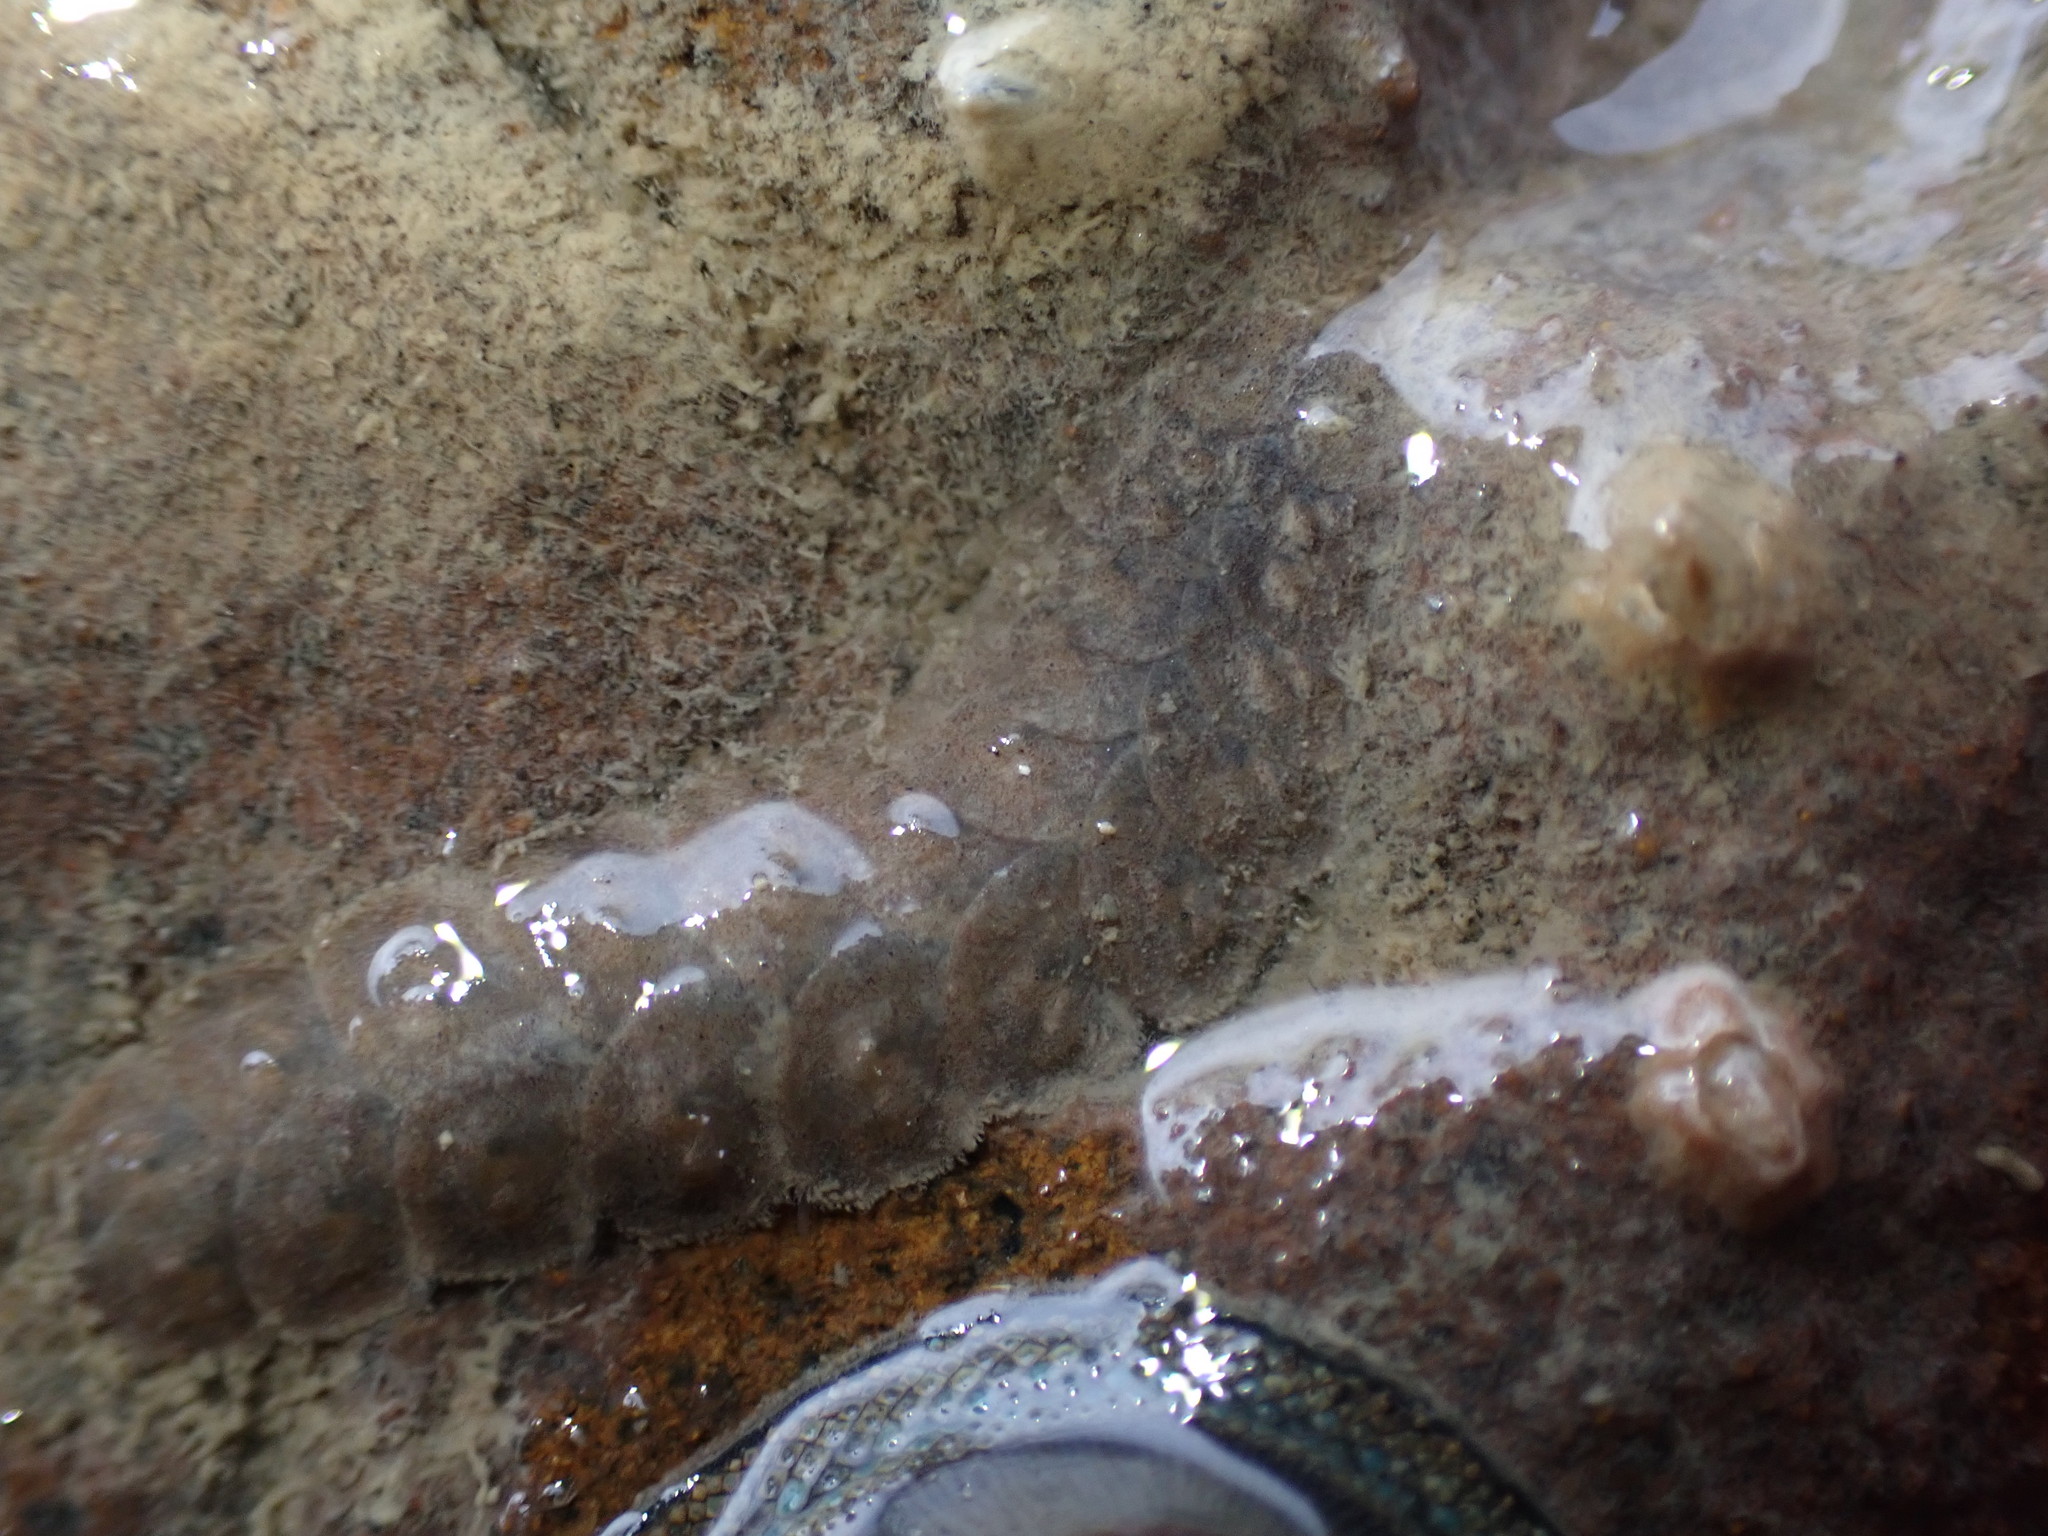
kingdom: Animalia
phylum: Annelida
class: Polychaeta
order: Phyllodocida
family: Polynoidae
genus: Paralepidonotus
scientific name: Paralepidonotus ampulliferus
